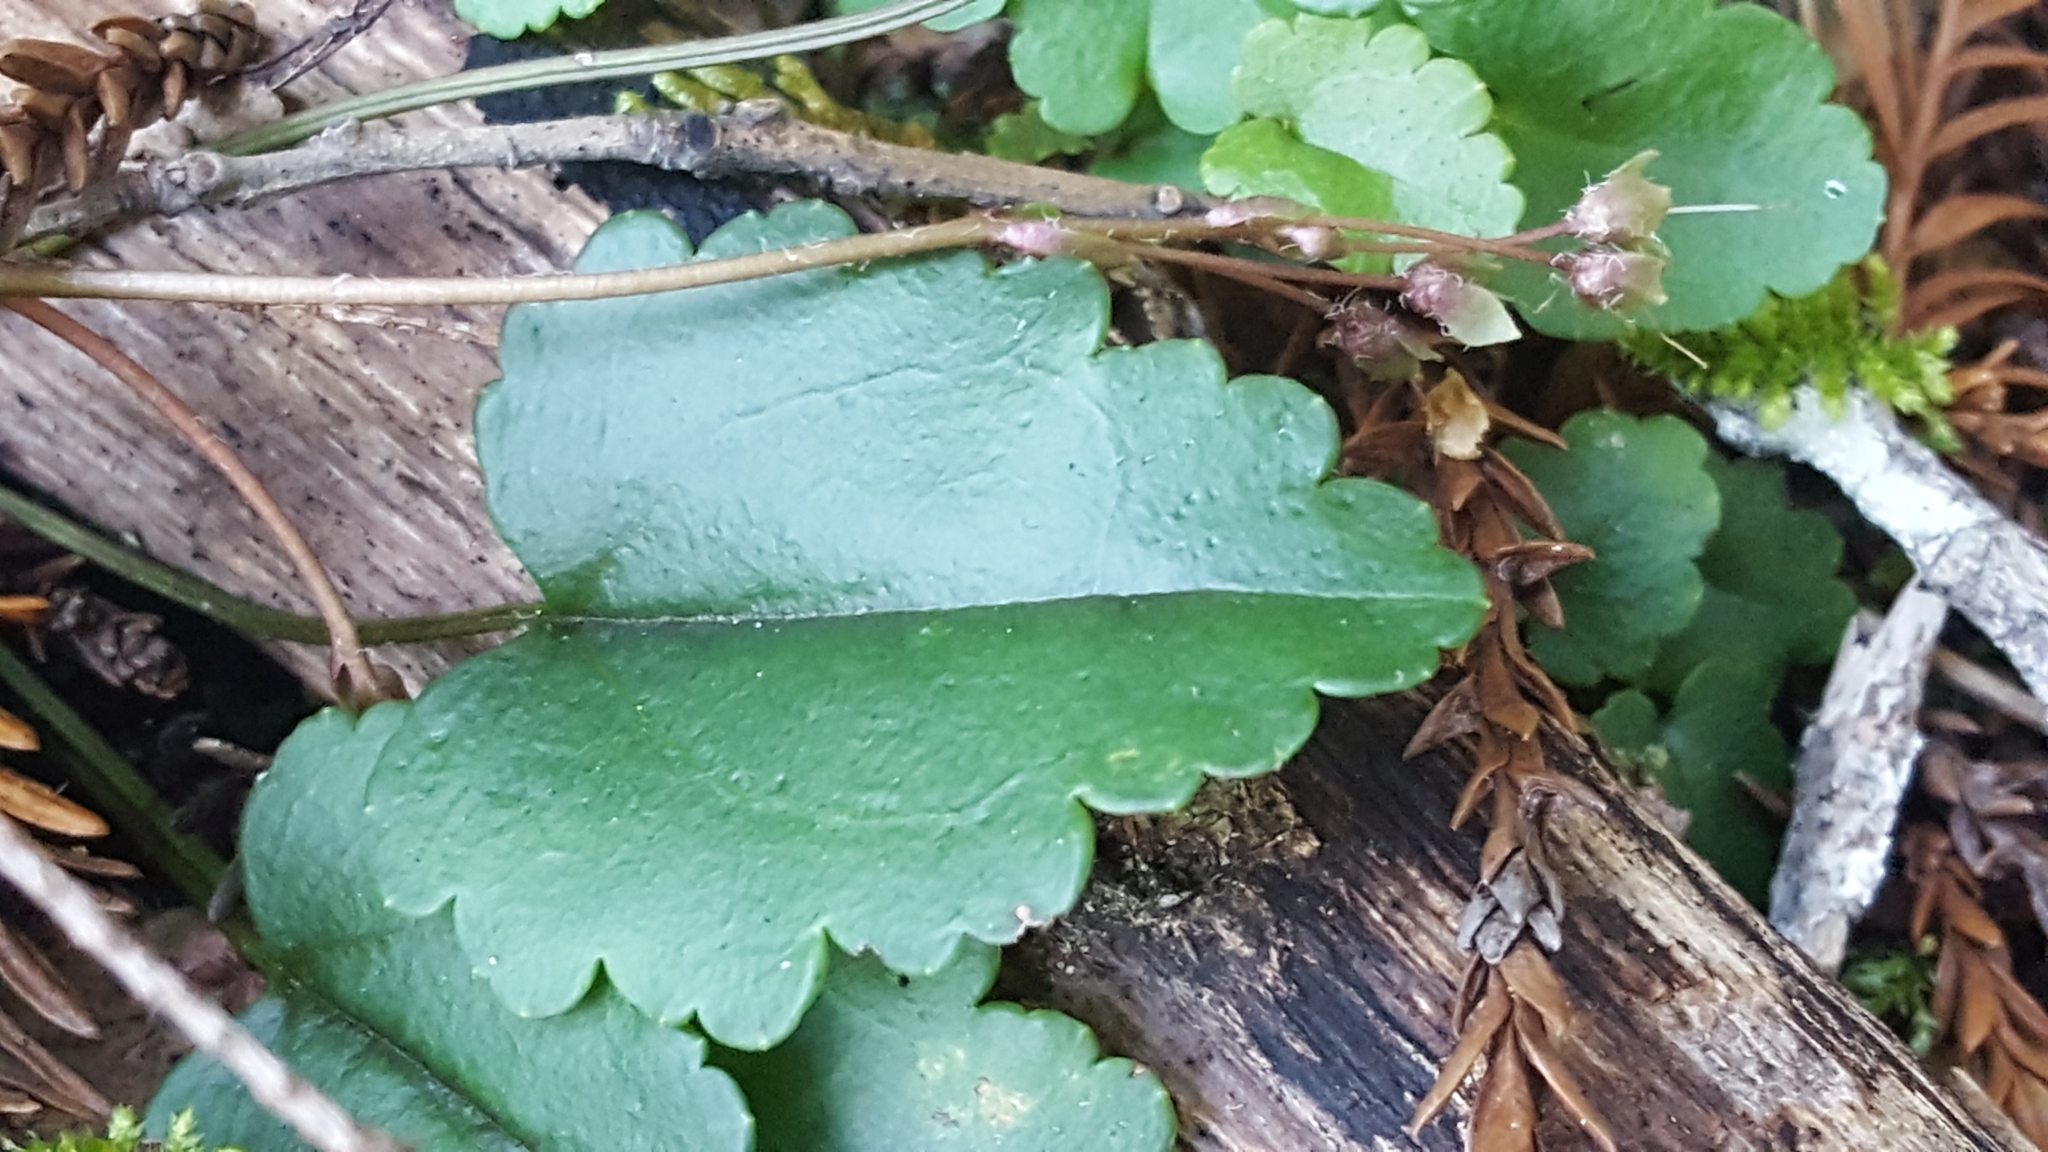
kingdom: Plantae
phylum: Tracheophyta
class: Magnoliopsida
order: Lamiales
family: Plantaginaceae
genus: Synthyris
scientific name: Synthyris cordata
